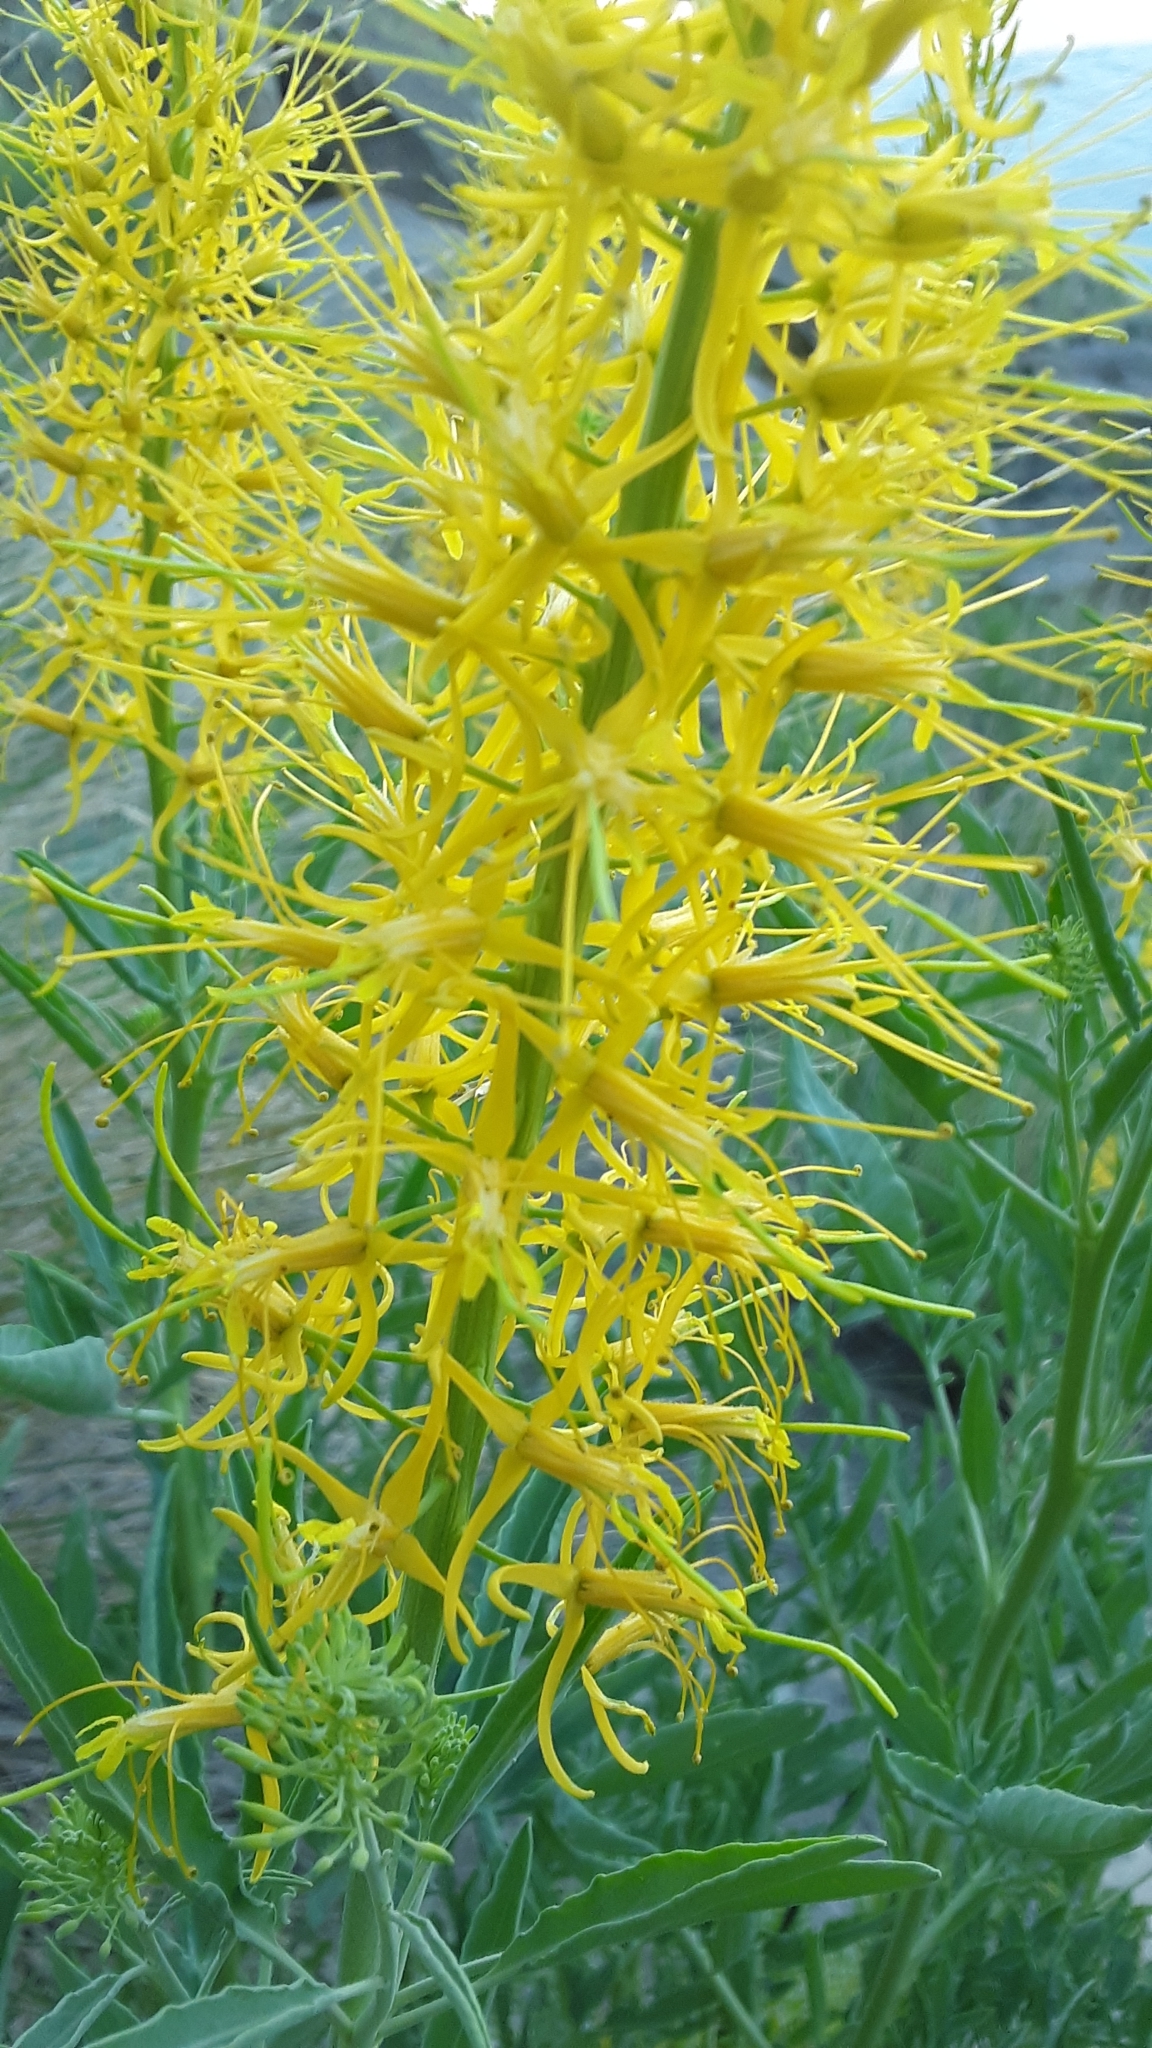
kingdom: Plantae
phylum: Tracheophyta
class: Magnoliopsida
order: Brassicales
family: Brassicaceae
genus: Stanleya
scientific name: Stanleya pinnata
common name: Prince's-plume
